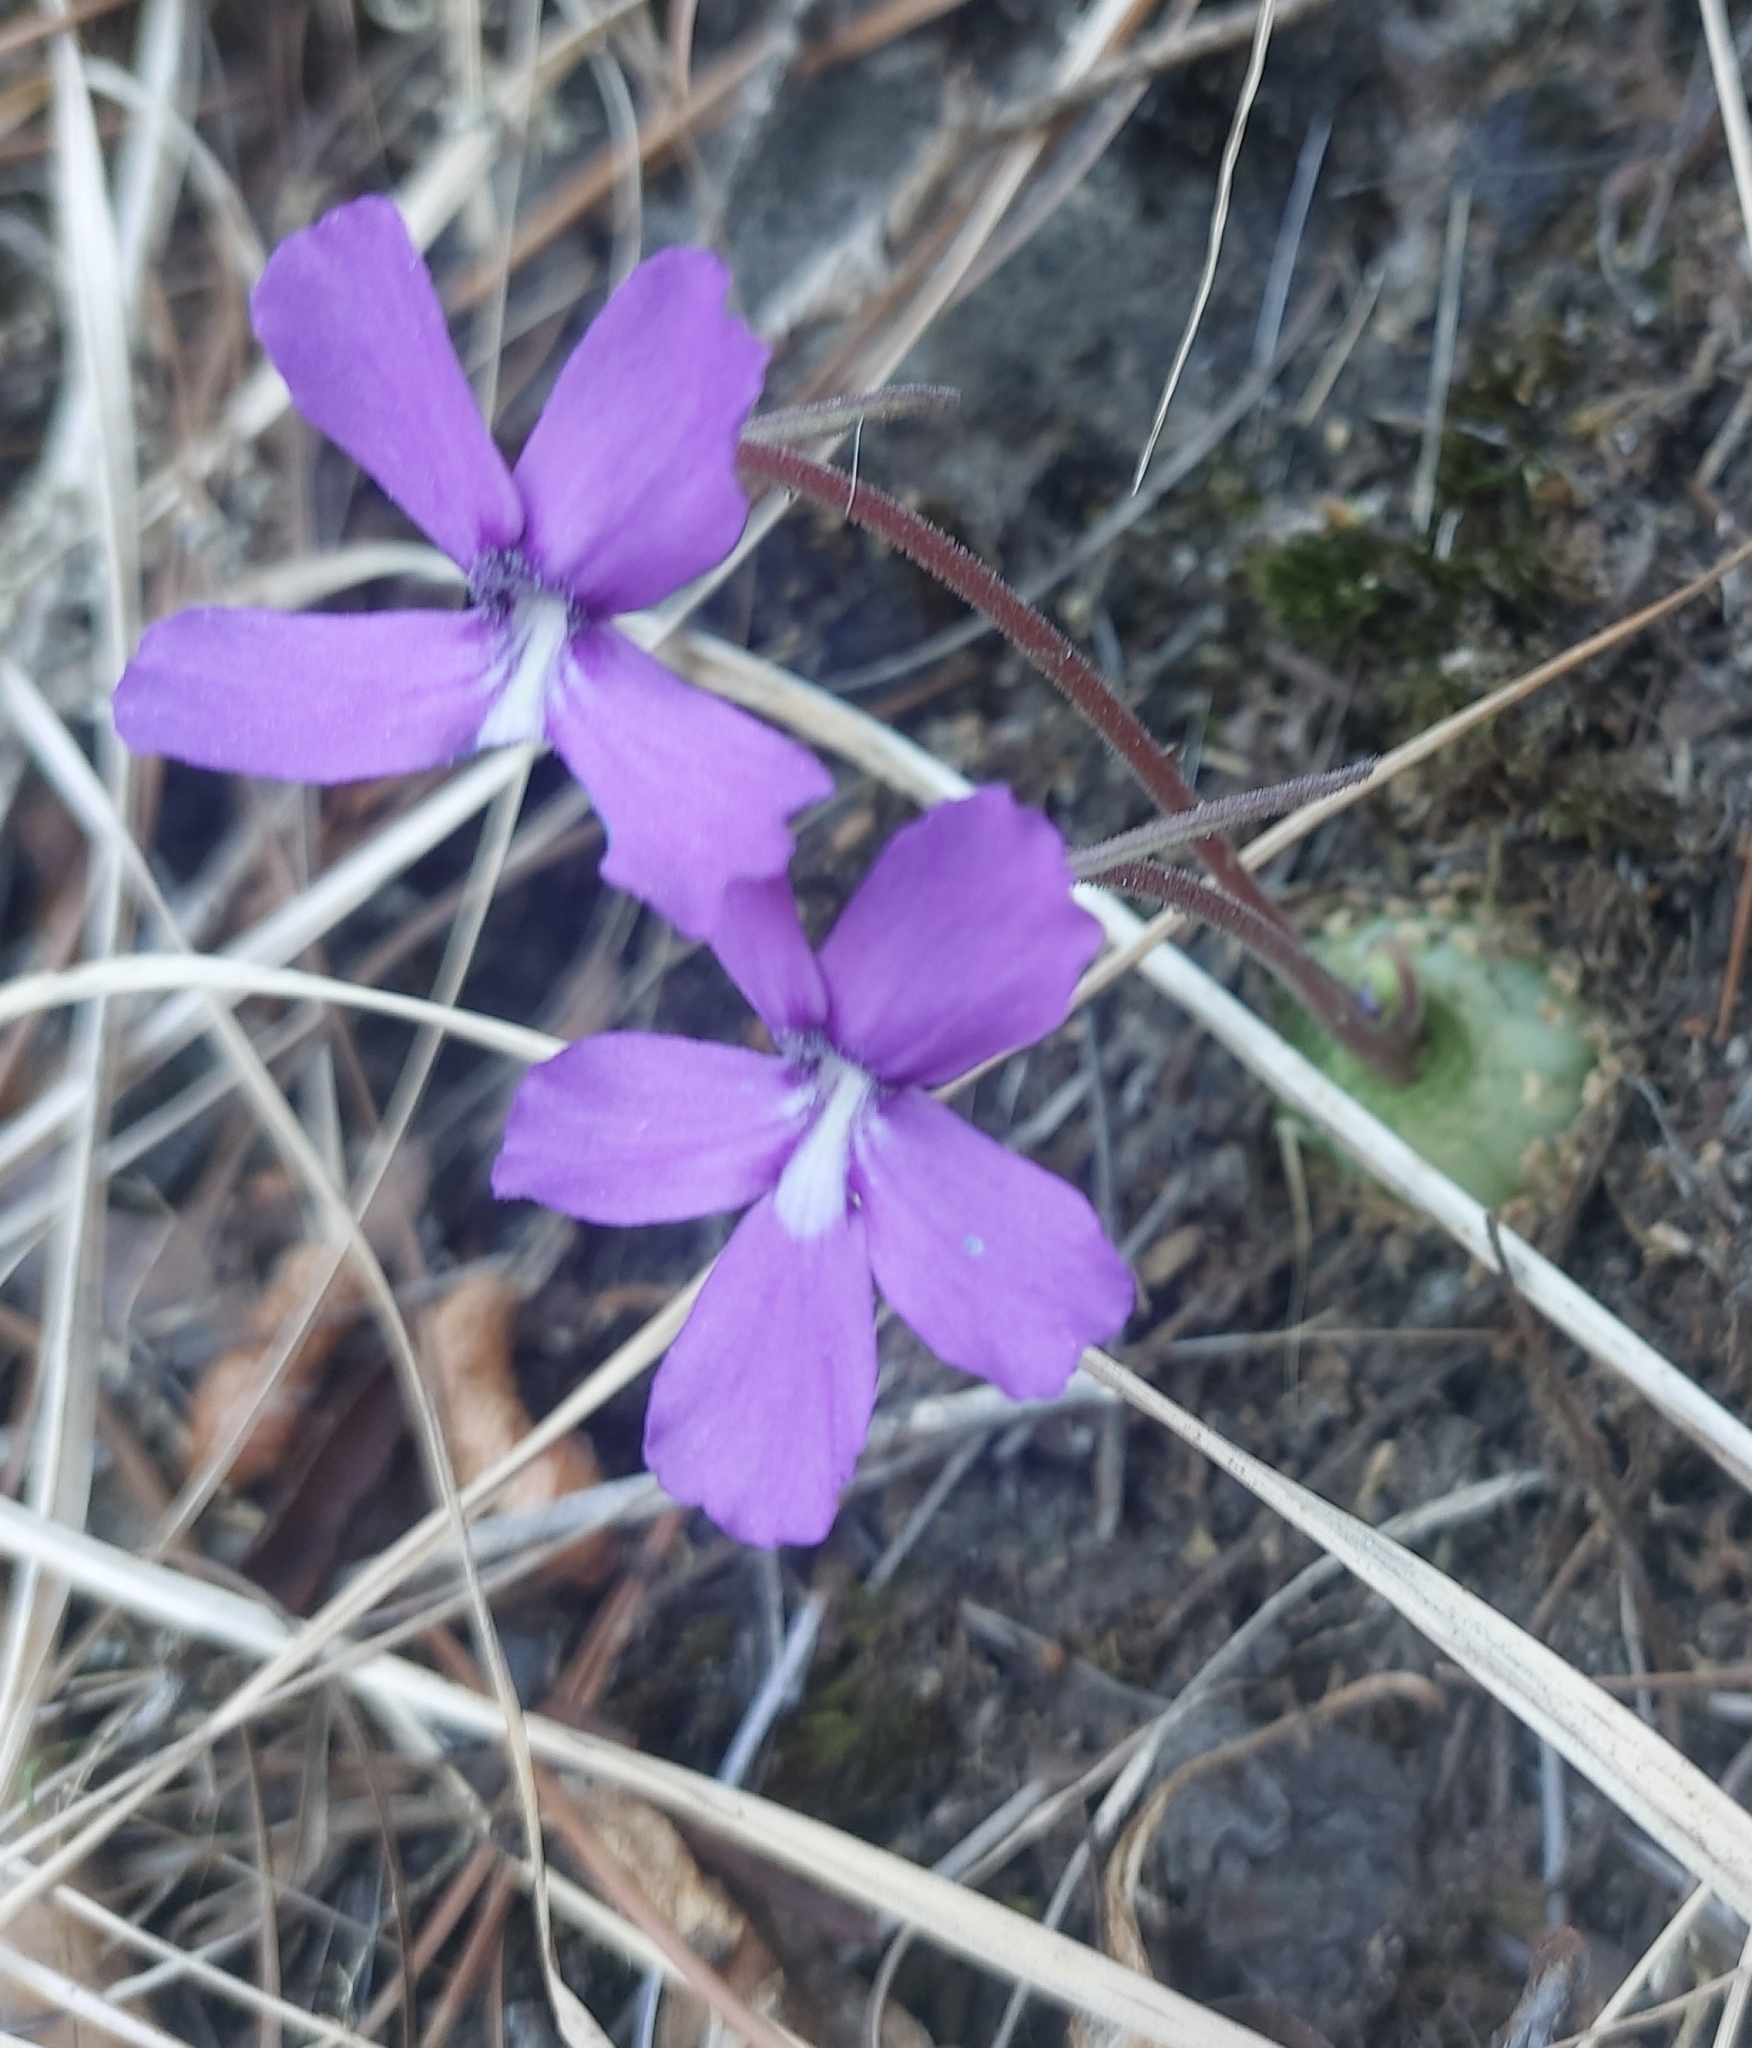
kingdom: Plantae
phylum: Tracheophyta
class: Magnoliopsida
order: Lamiales
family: Lentibulariaceae
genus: Pinguicula
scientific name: Pinguicula moranensis
